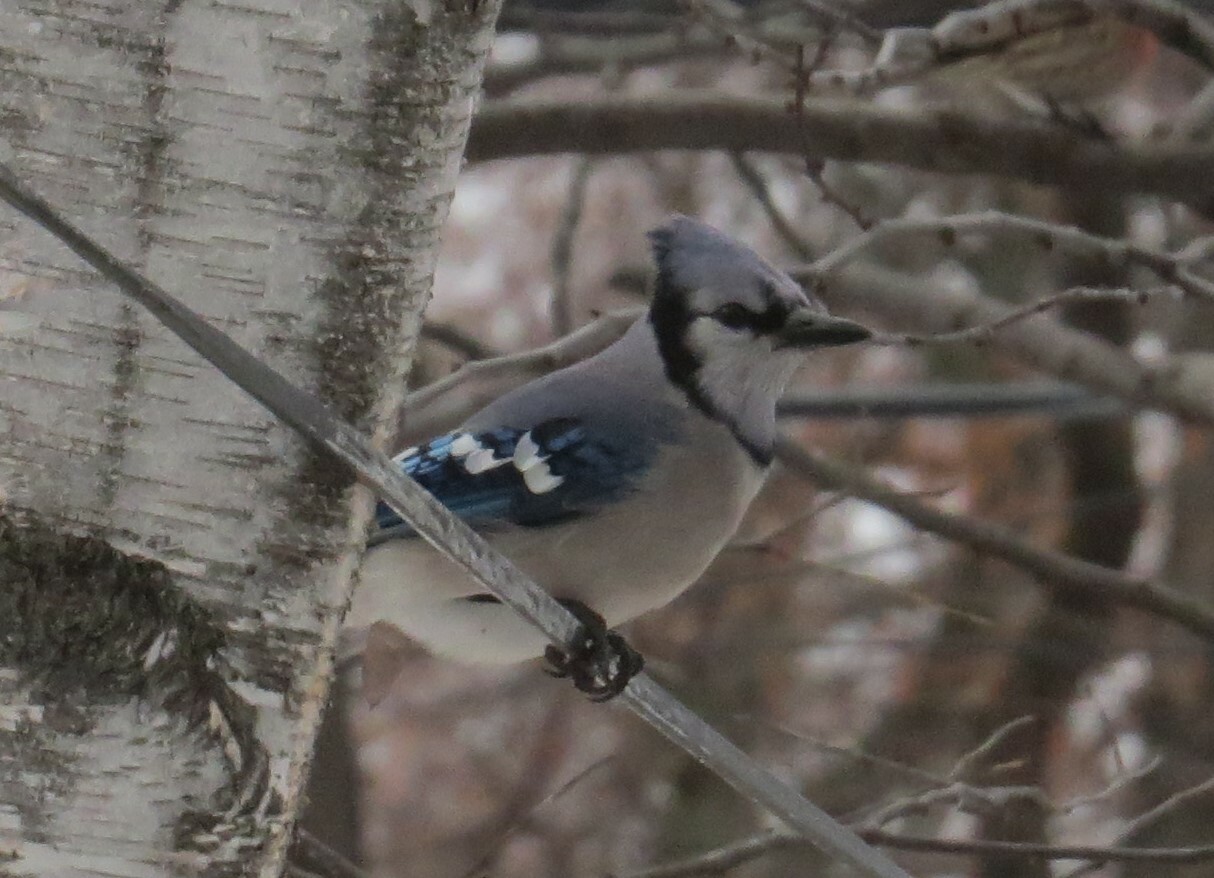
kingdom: Animalia
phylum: Chordata
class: Aves
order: Passeriformes
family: Corvidae
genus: Cyanocitta
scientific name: Cyanocitta cristata
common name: Blue jay
